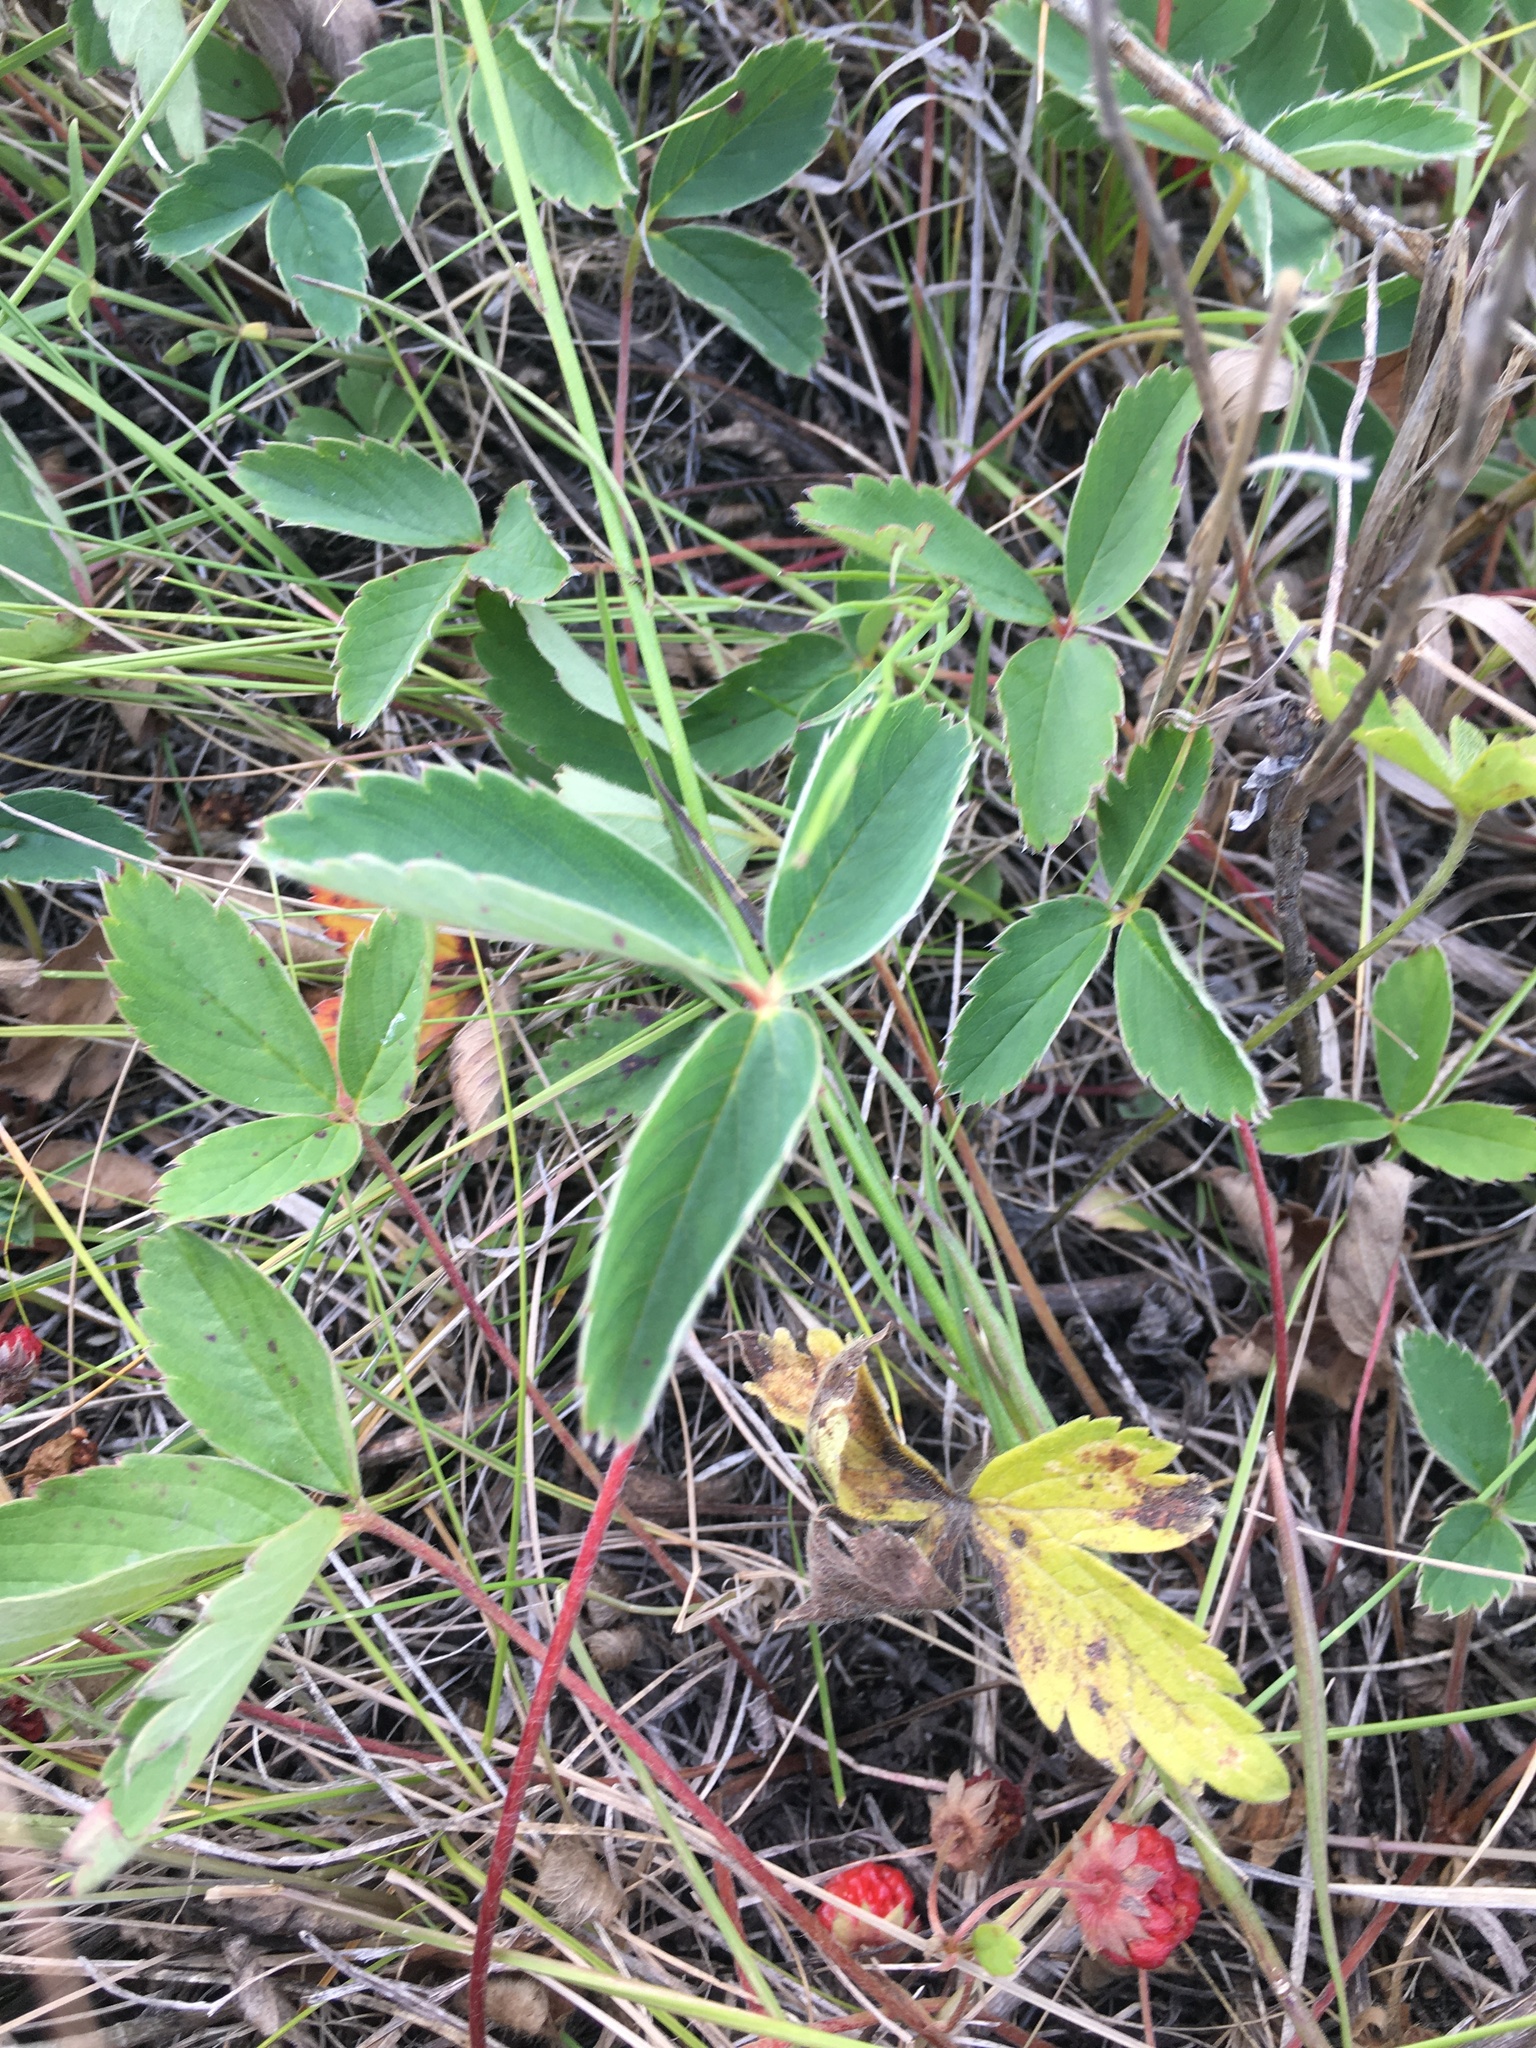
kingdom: Plantae
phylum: Tracheophyta
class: Magnoliopsida
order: Rosales
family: Rosaceae
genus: Fragaria
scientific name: Fragaria virginiana
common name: Thickleaved wild strawberry
